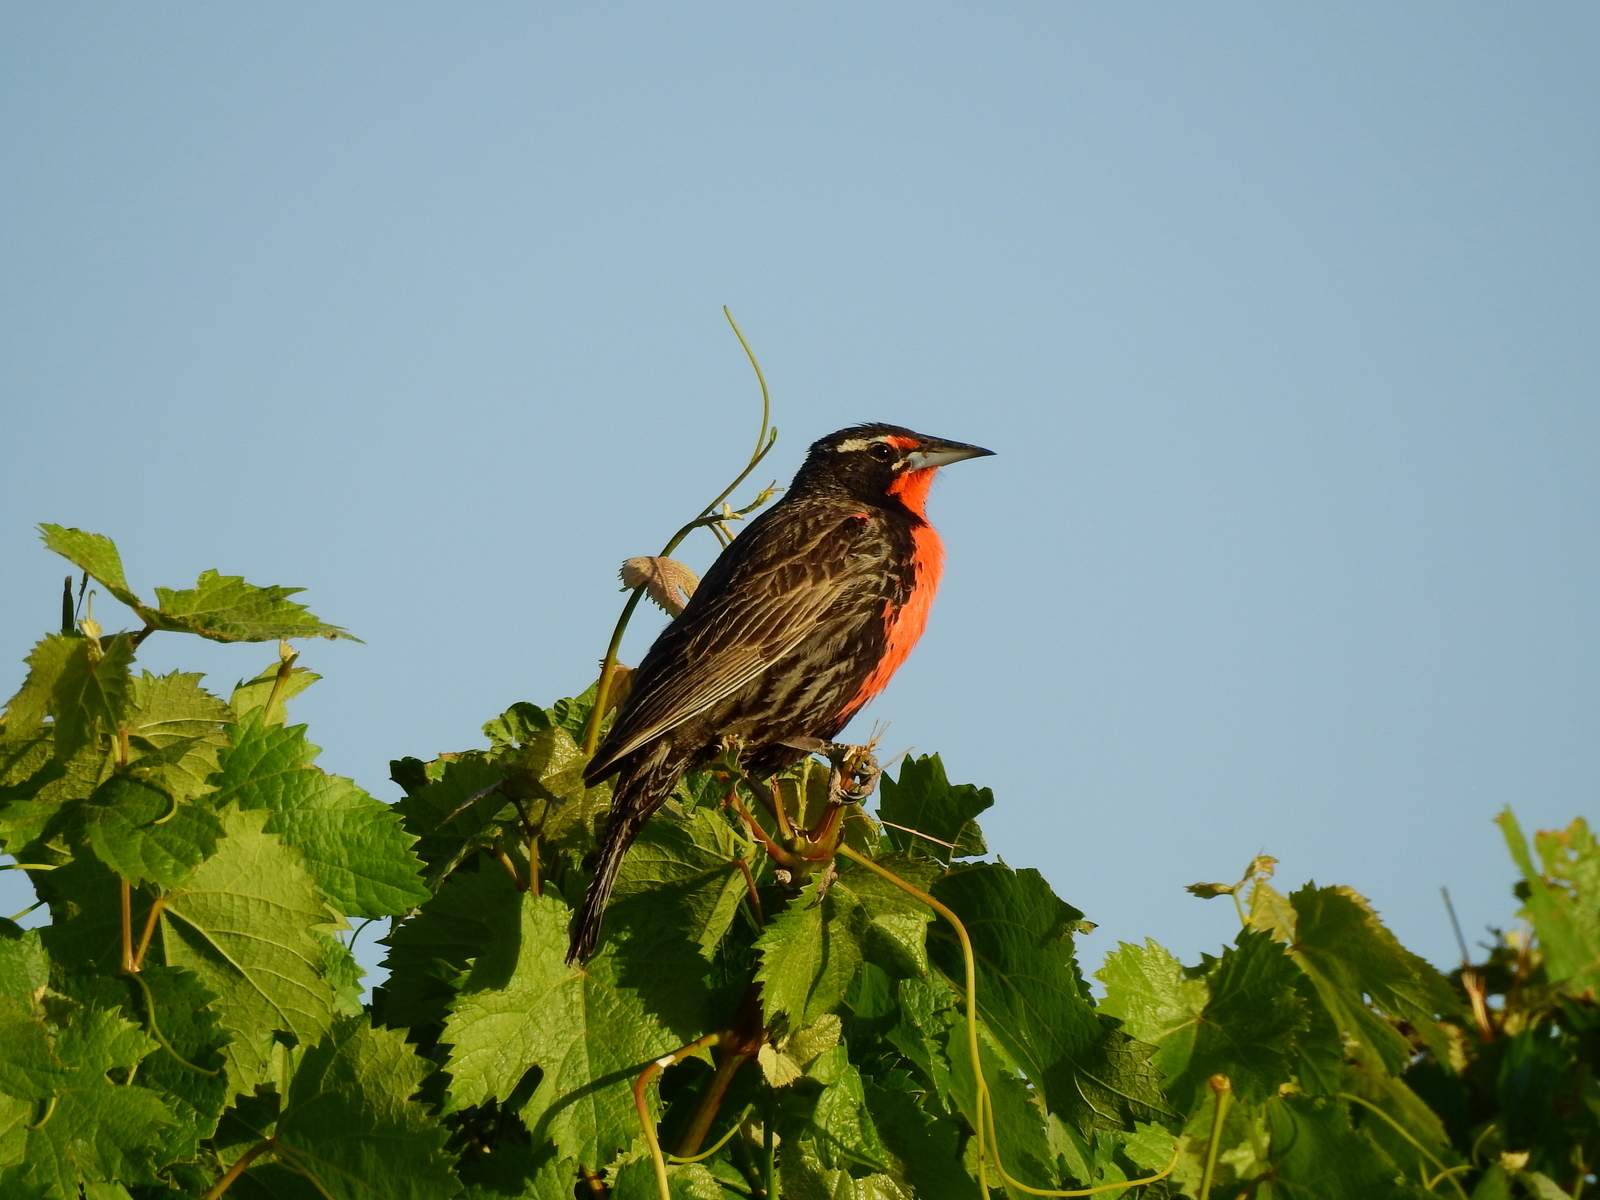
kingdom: Animalia
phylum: Chordata
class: Aves
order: Passeriformes
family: Icteridae
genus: Sturnella
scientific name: Sturnella loyca
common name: Long-tailed meadowlark
